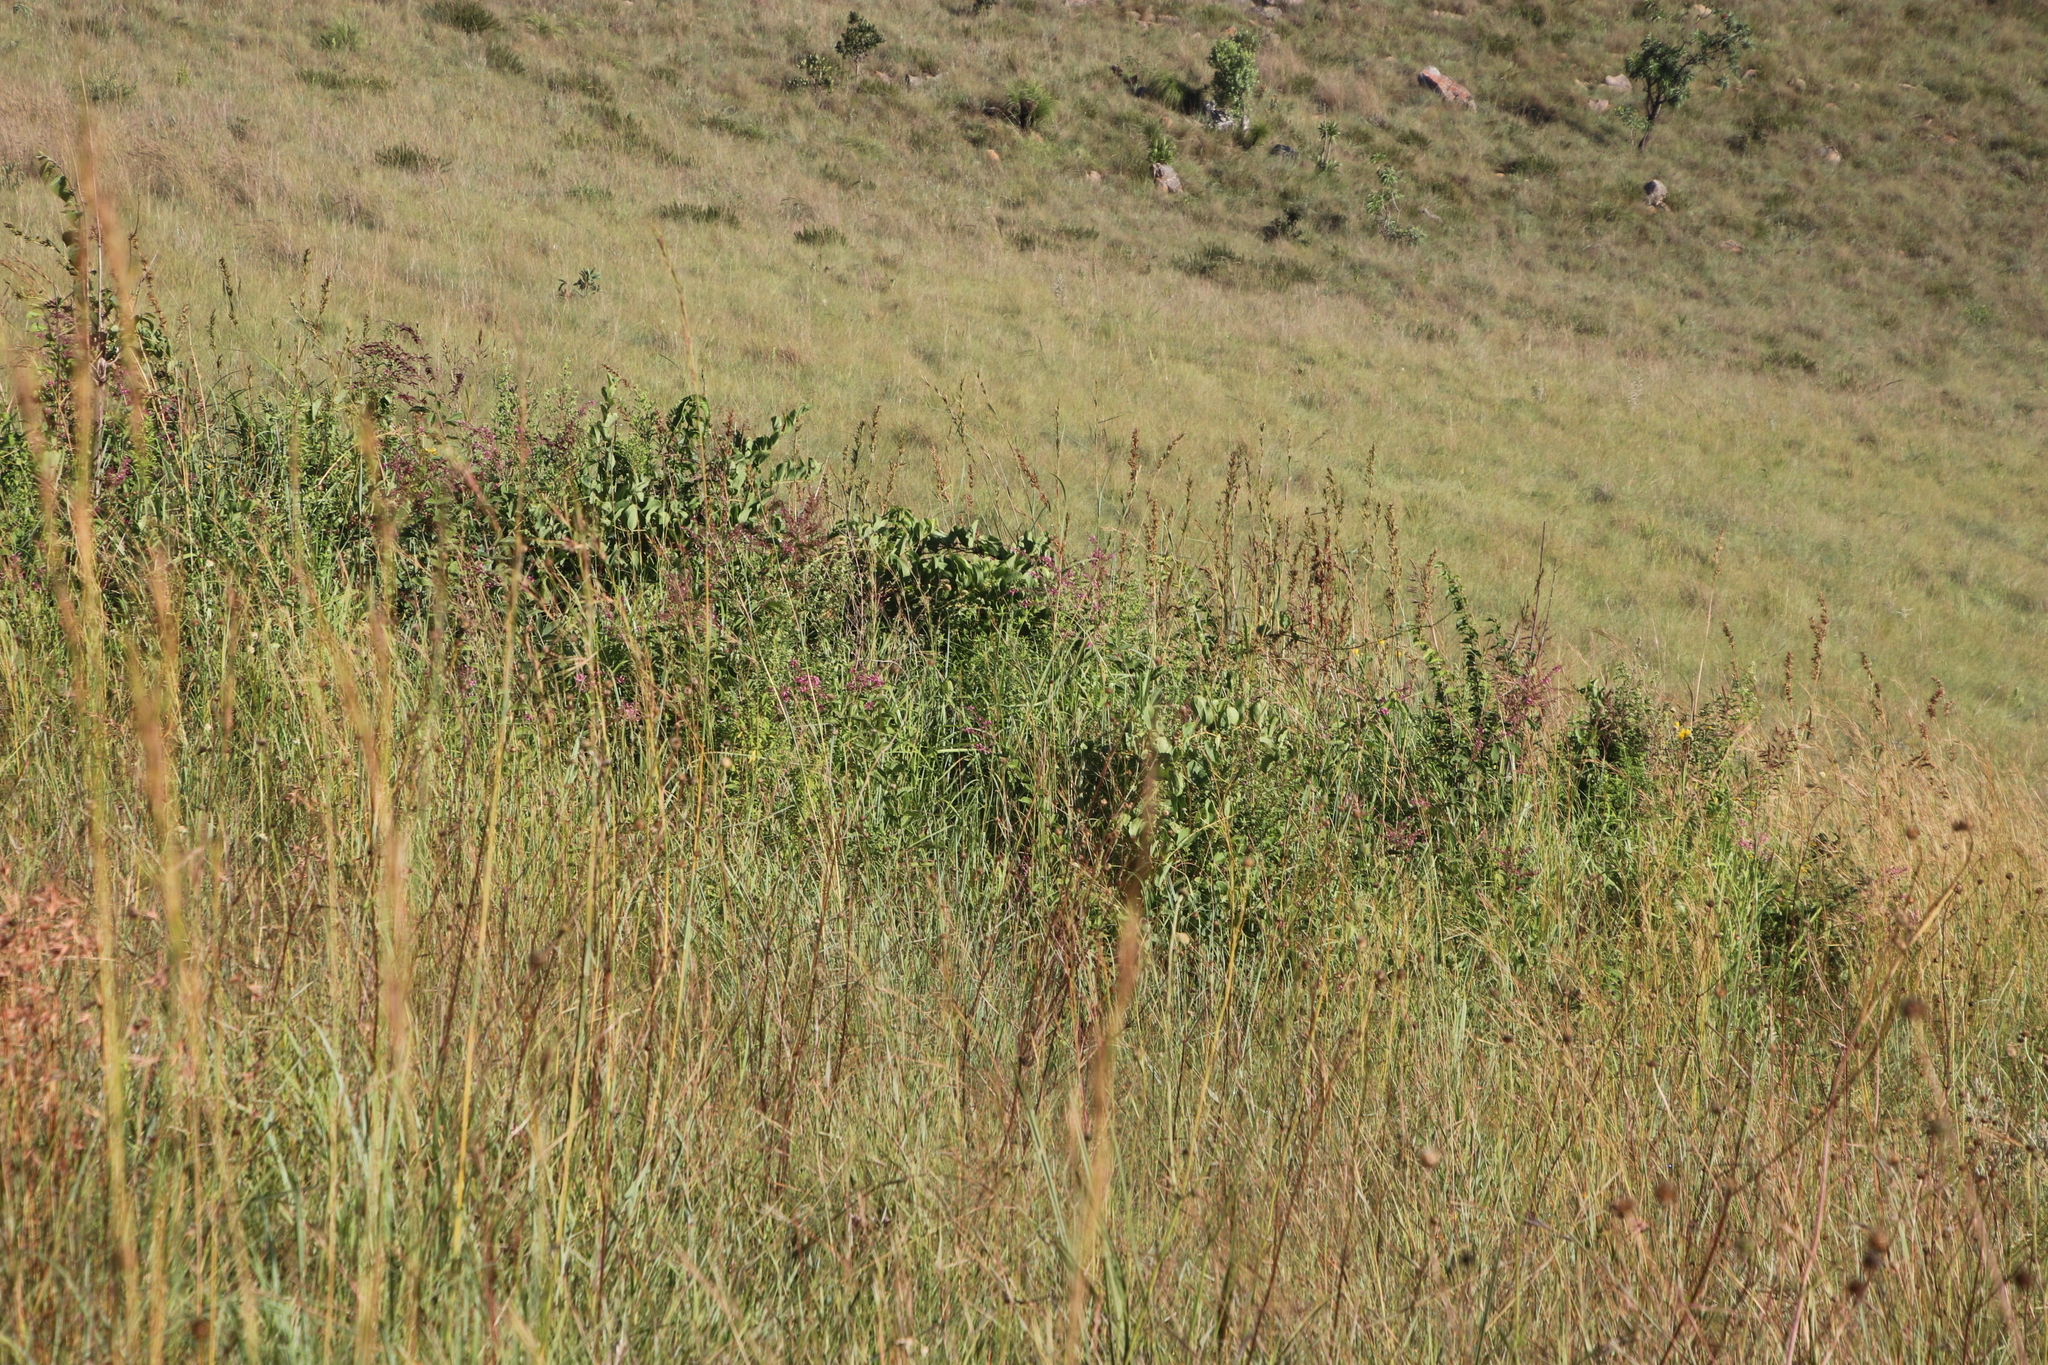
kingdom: Plantae
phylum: Tracheophyta
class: Magnoliopsida
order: Fabales
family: Fabaceae
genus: Pseudarthria
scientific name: Pseudarthria hookeri
